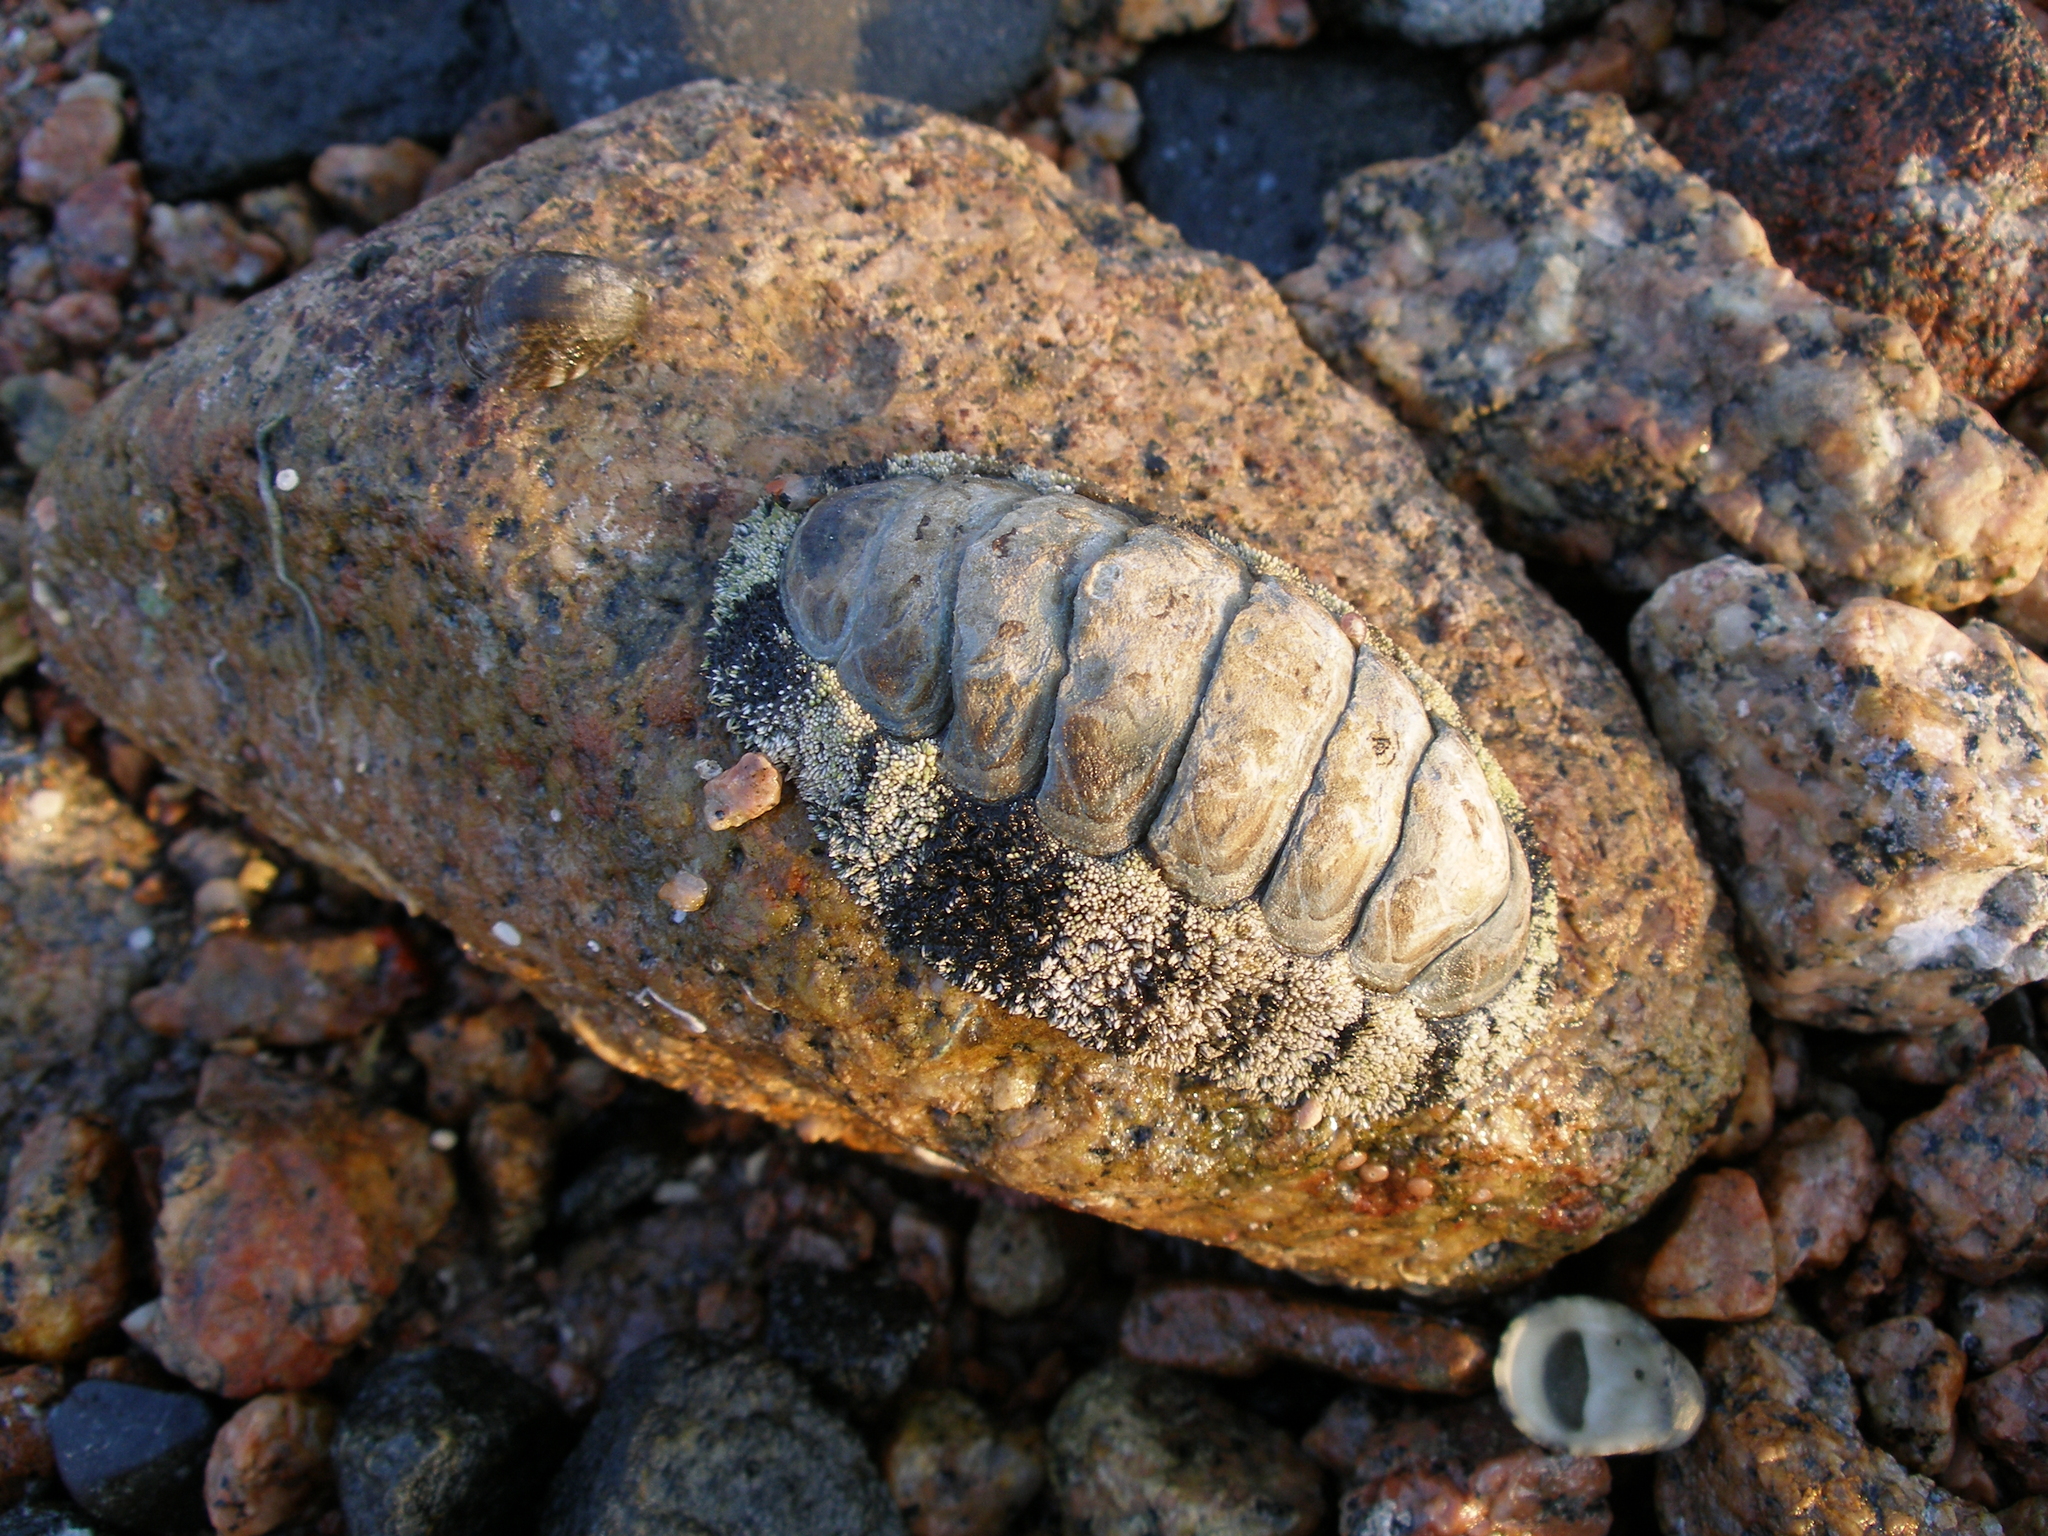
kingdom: Animalia
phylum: Mollusca
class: Polyplacophora
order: Chitonida
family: Chitonidae
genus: Acanthopleura
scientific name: Acanthopleura vaillantii
